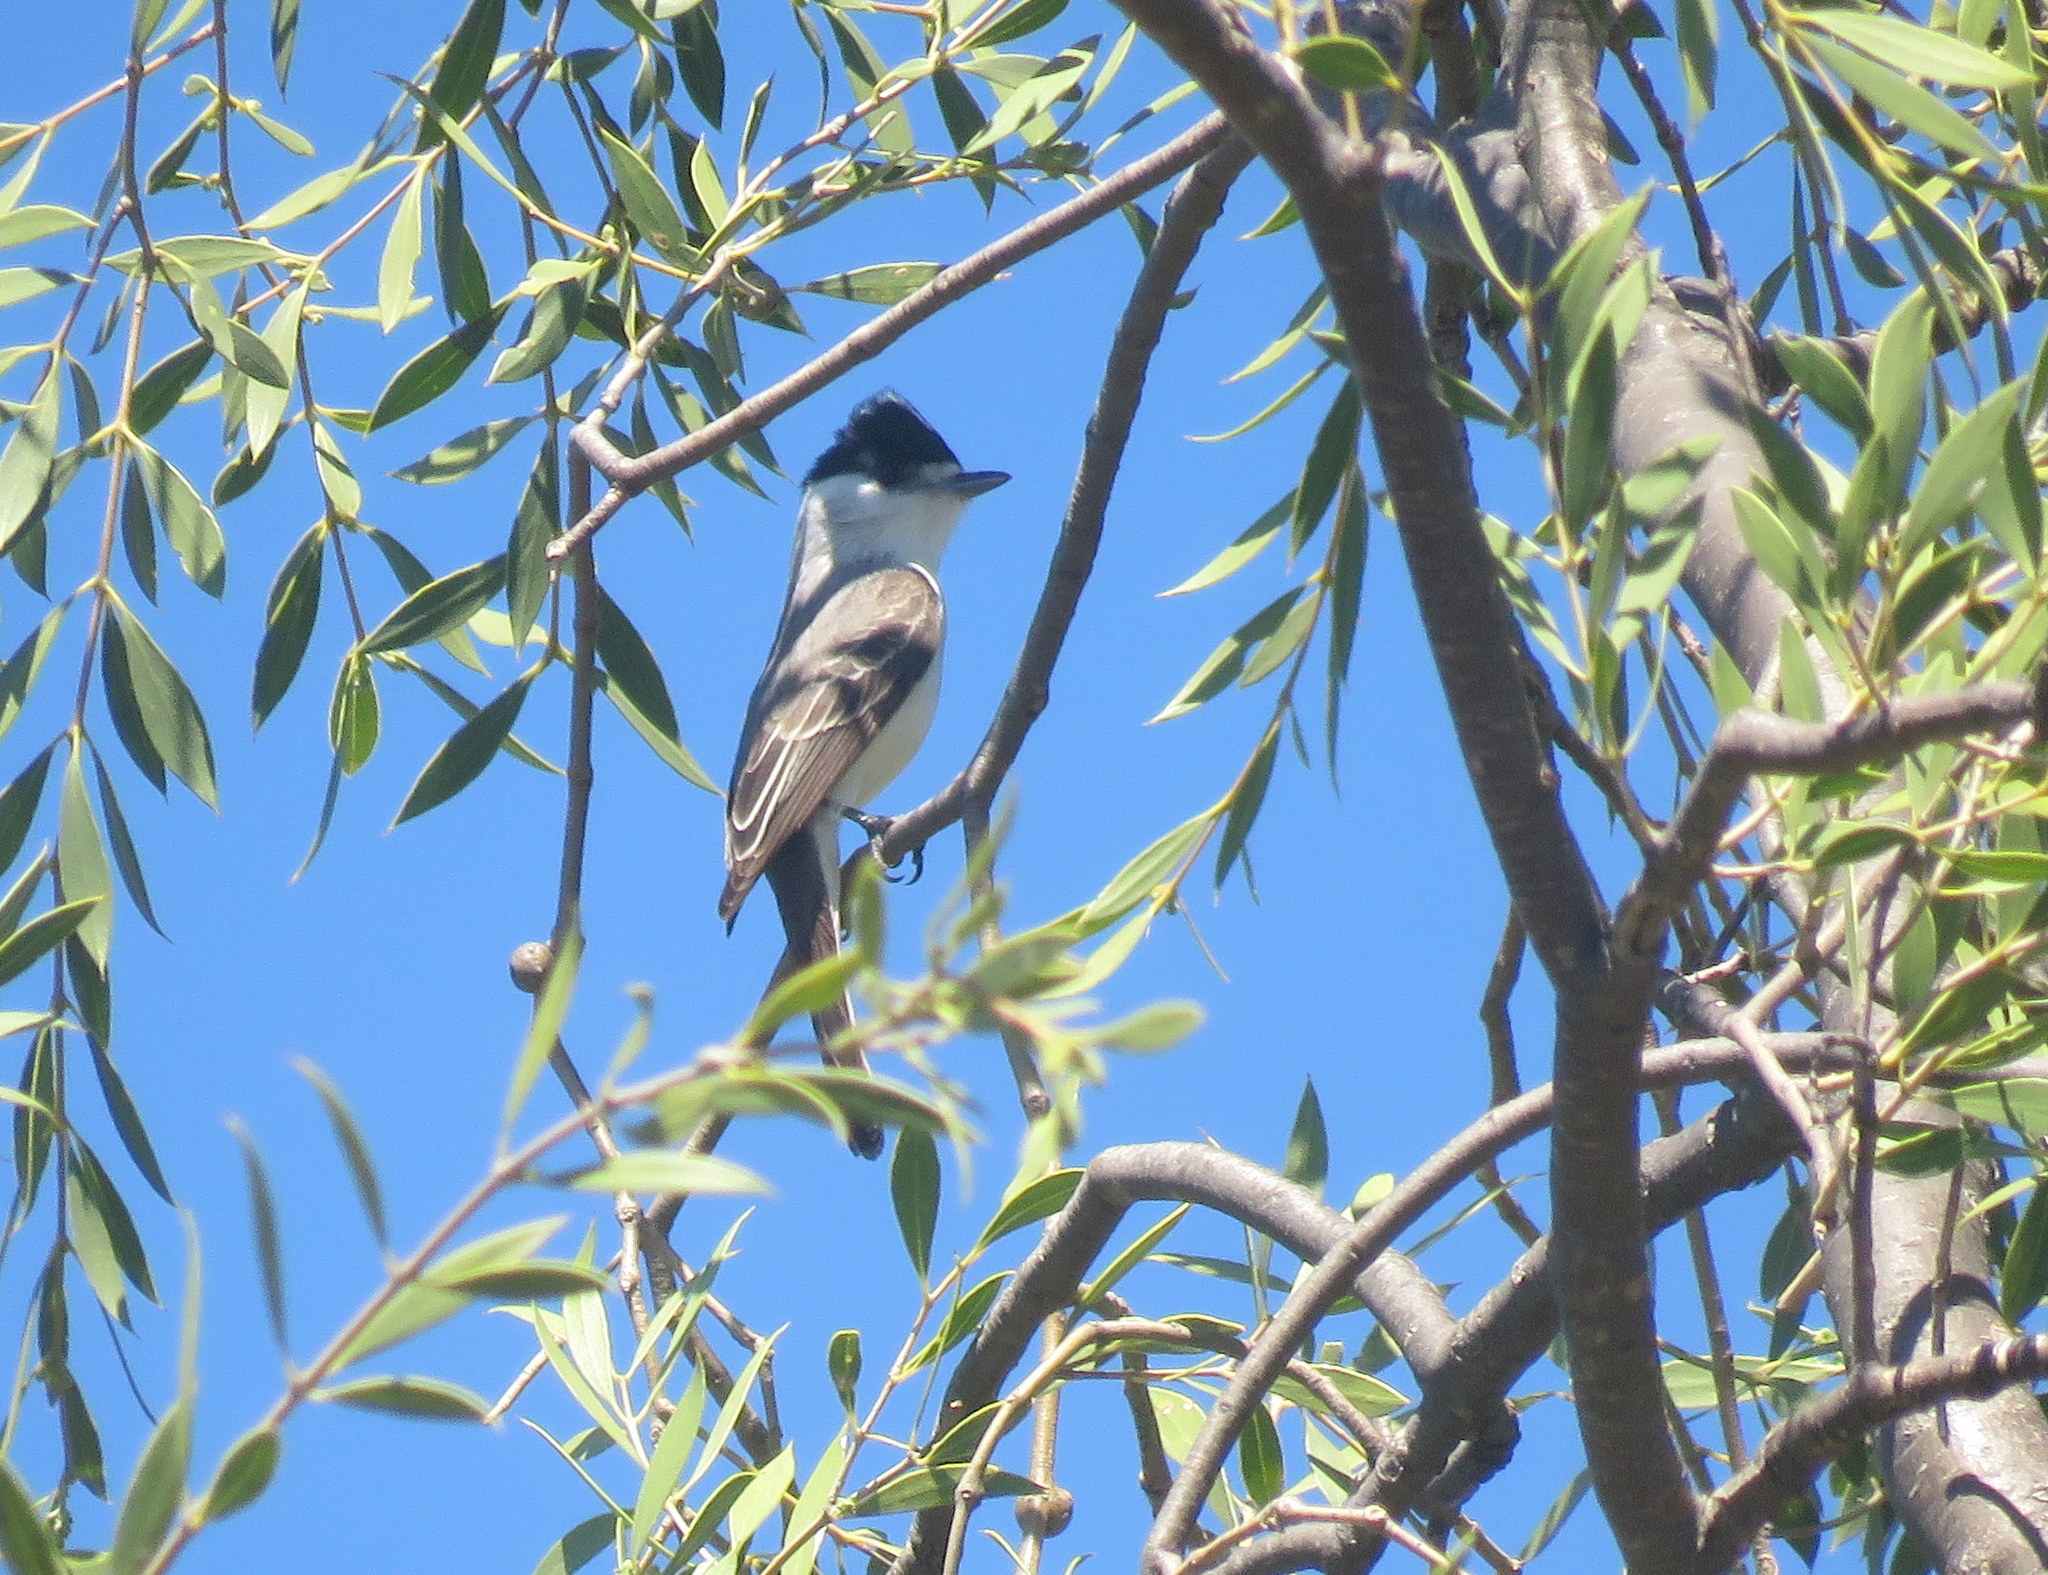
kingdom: Animalia
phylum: Chordata
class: Aves
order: Passeriformes
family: Cotingidae
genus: Xenopsaris
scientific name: Xenopsaris albinucha
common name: White-naped xenopsaris
